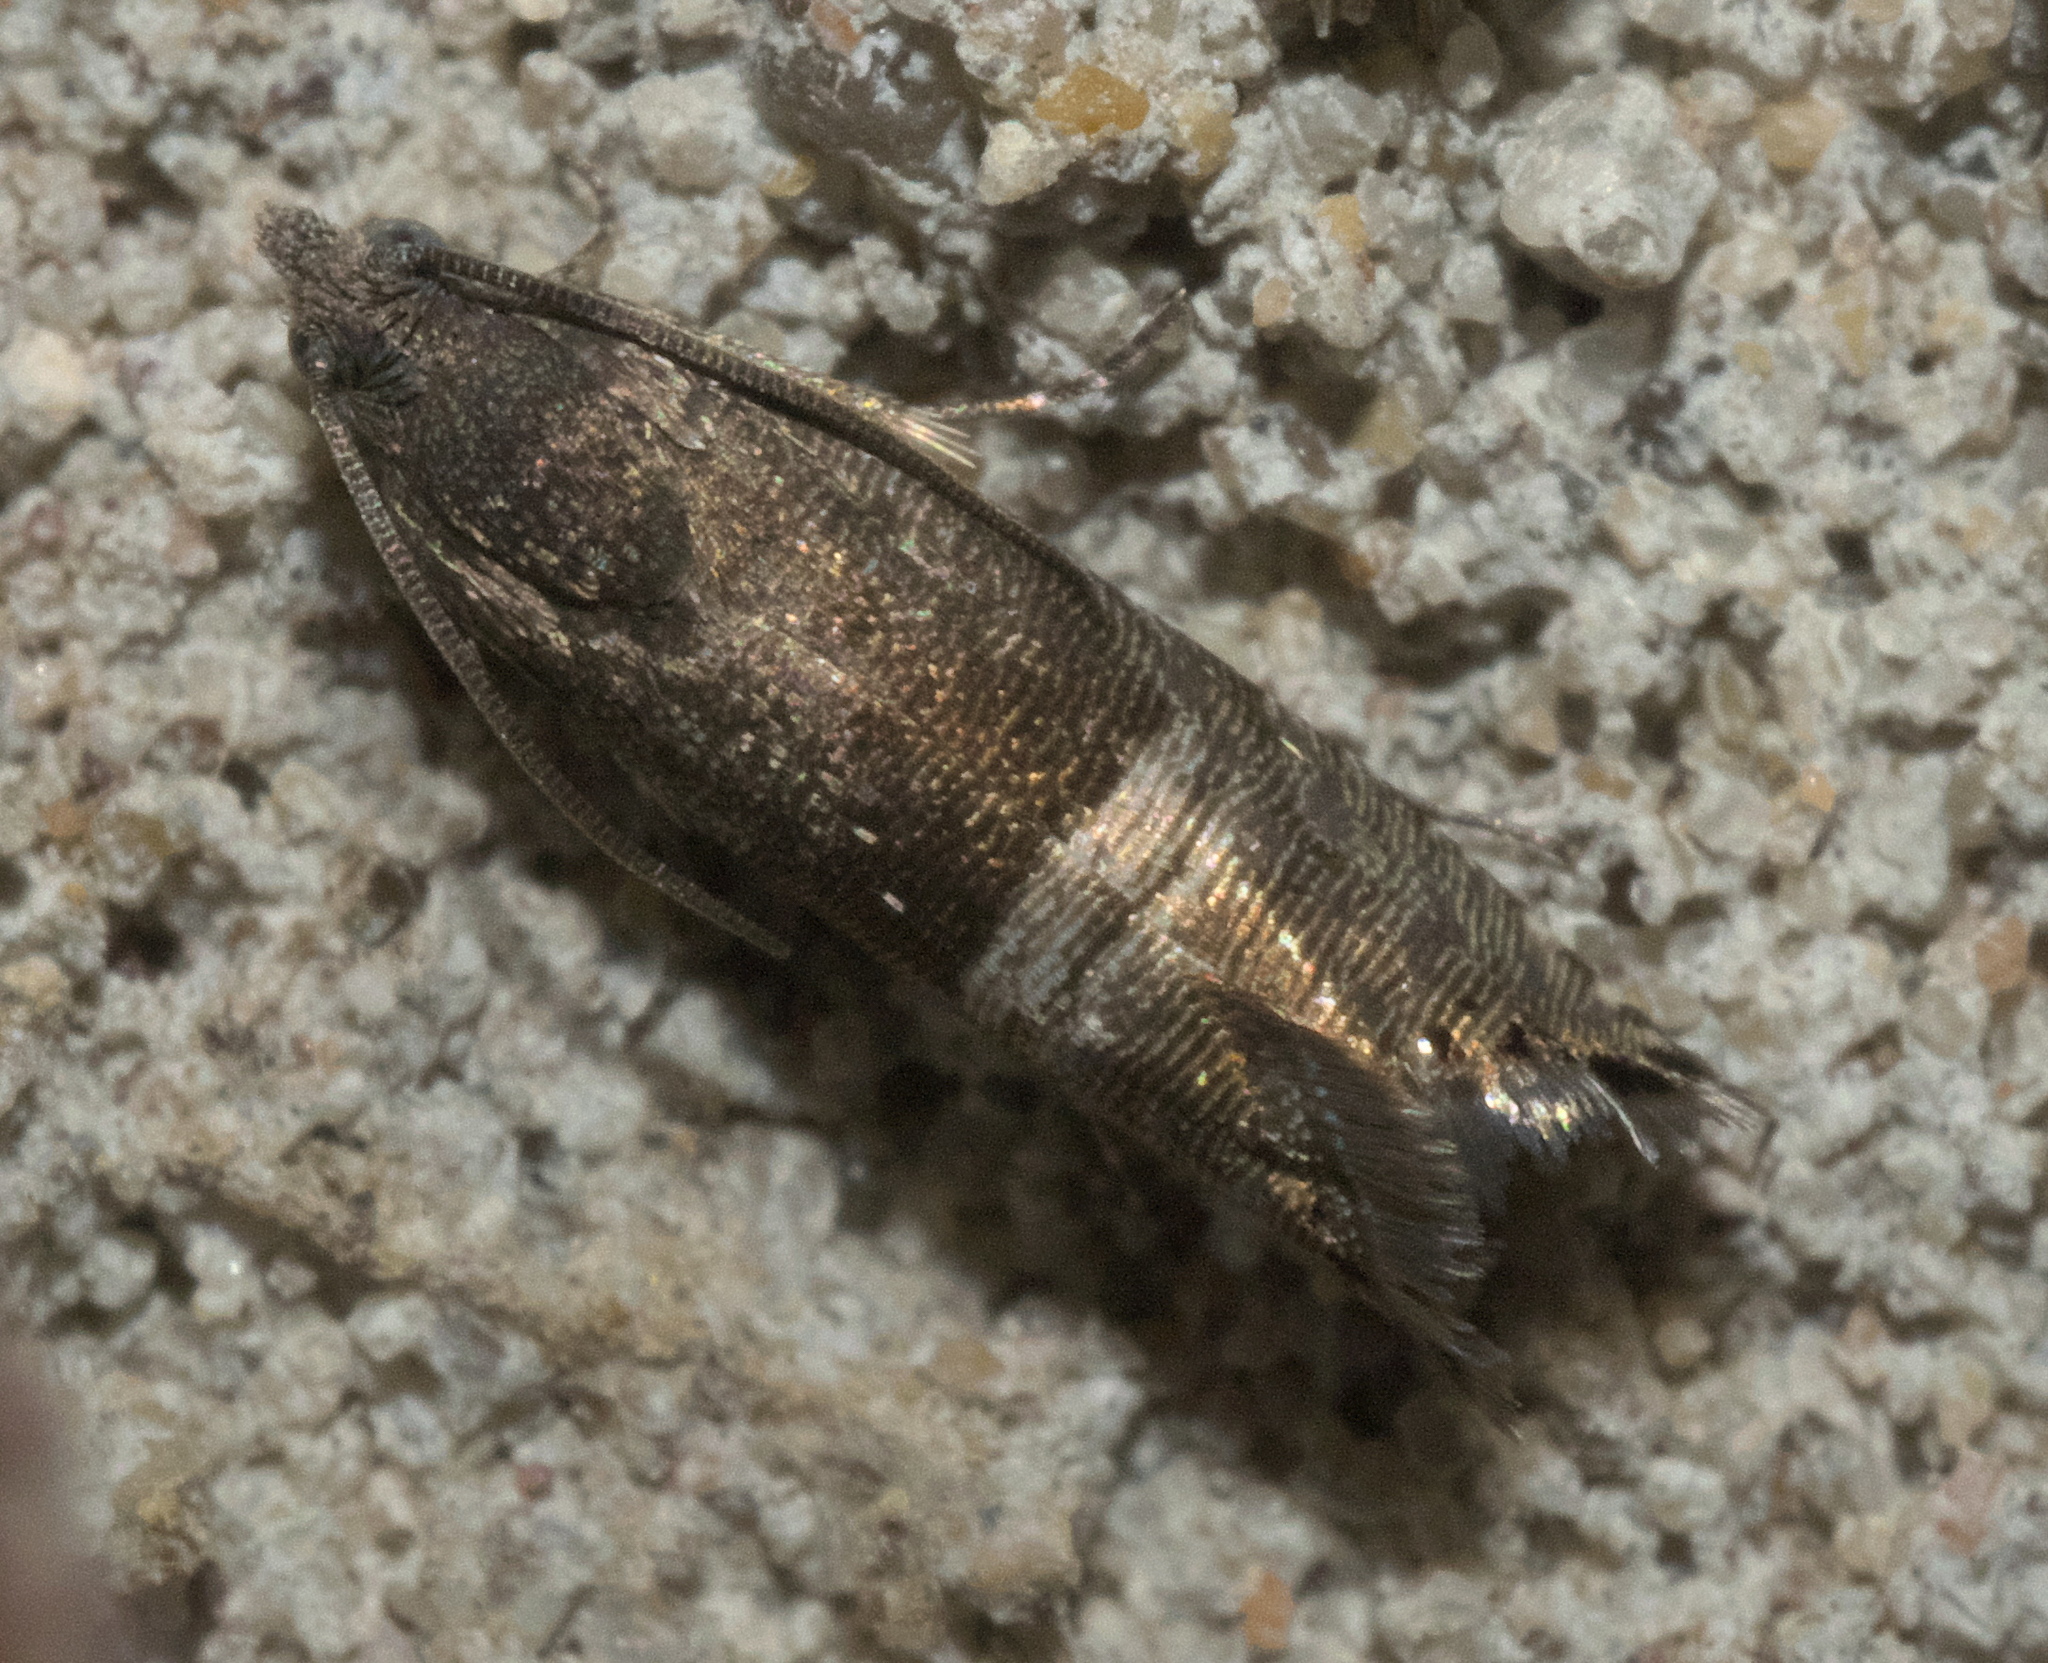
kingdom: Animalia
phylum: Arthropoda
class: Insecta
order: Lepidoptera
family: Tortricidae
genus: Sereda
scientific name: Sereda tautana
